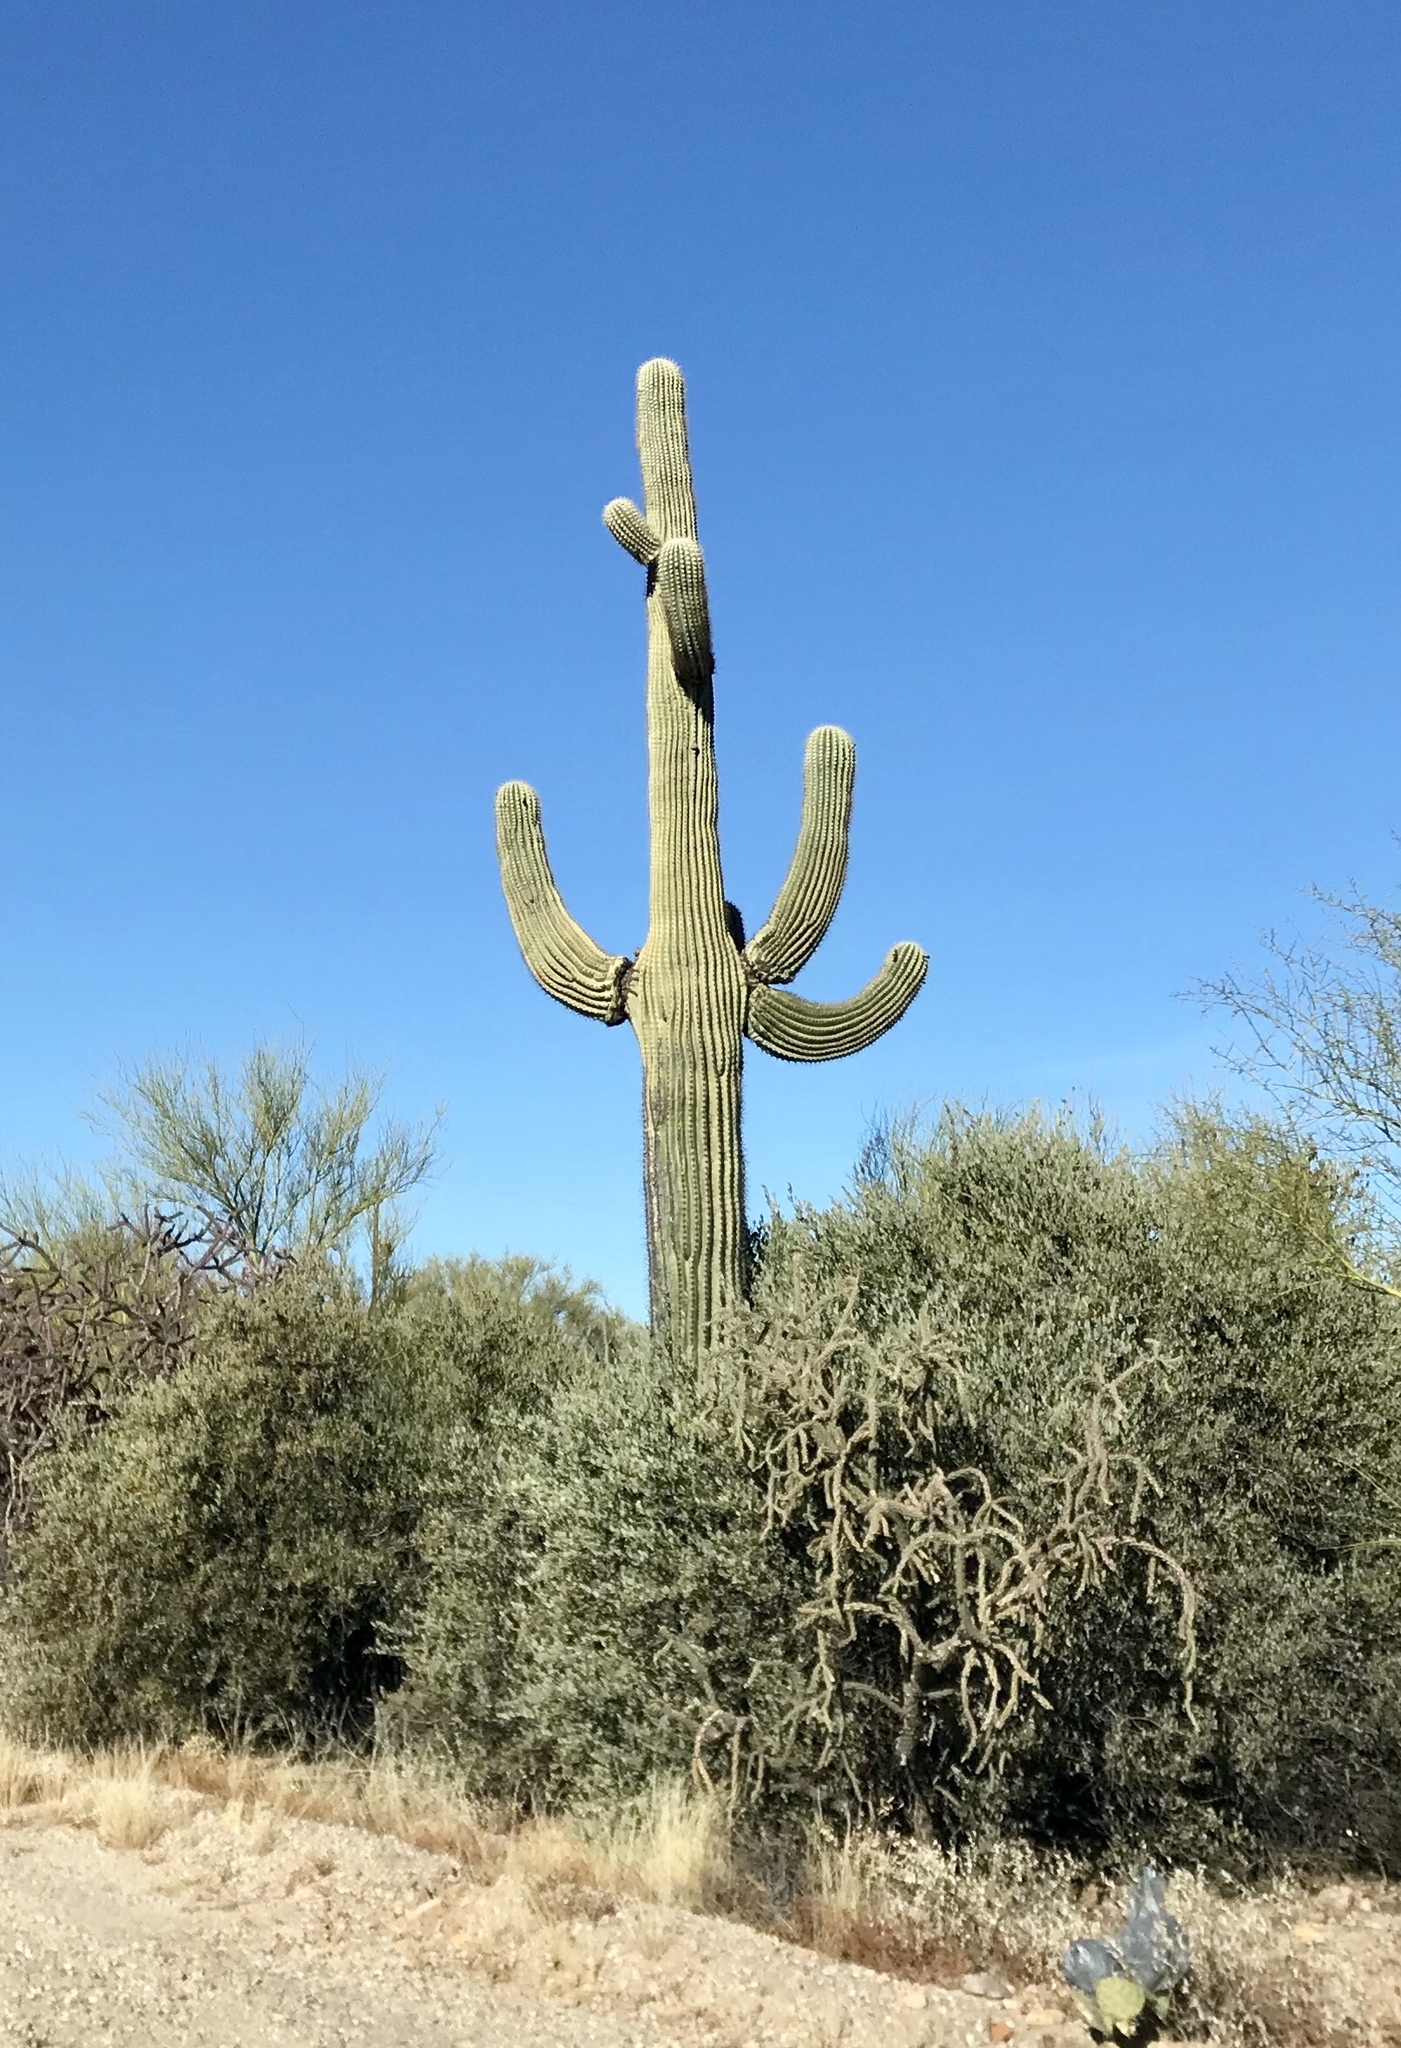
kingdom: Plantae
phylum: Tracheophyta
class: Magnoliopsida
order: Caryophyllales
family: Cactaceae
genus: Carnegiea
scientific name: Carnegiea gigantea
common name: Saguaro
